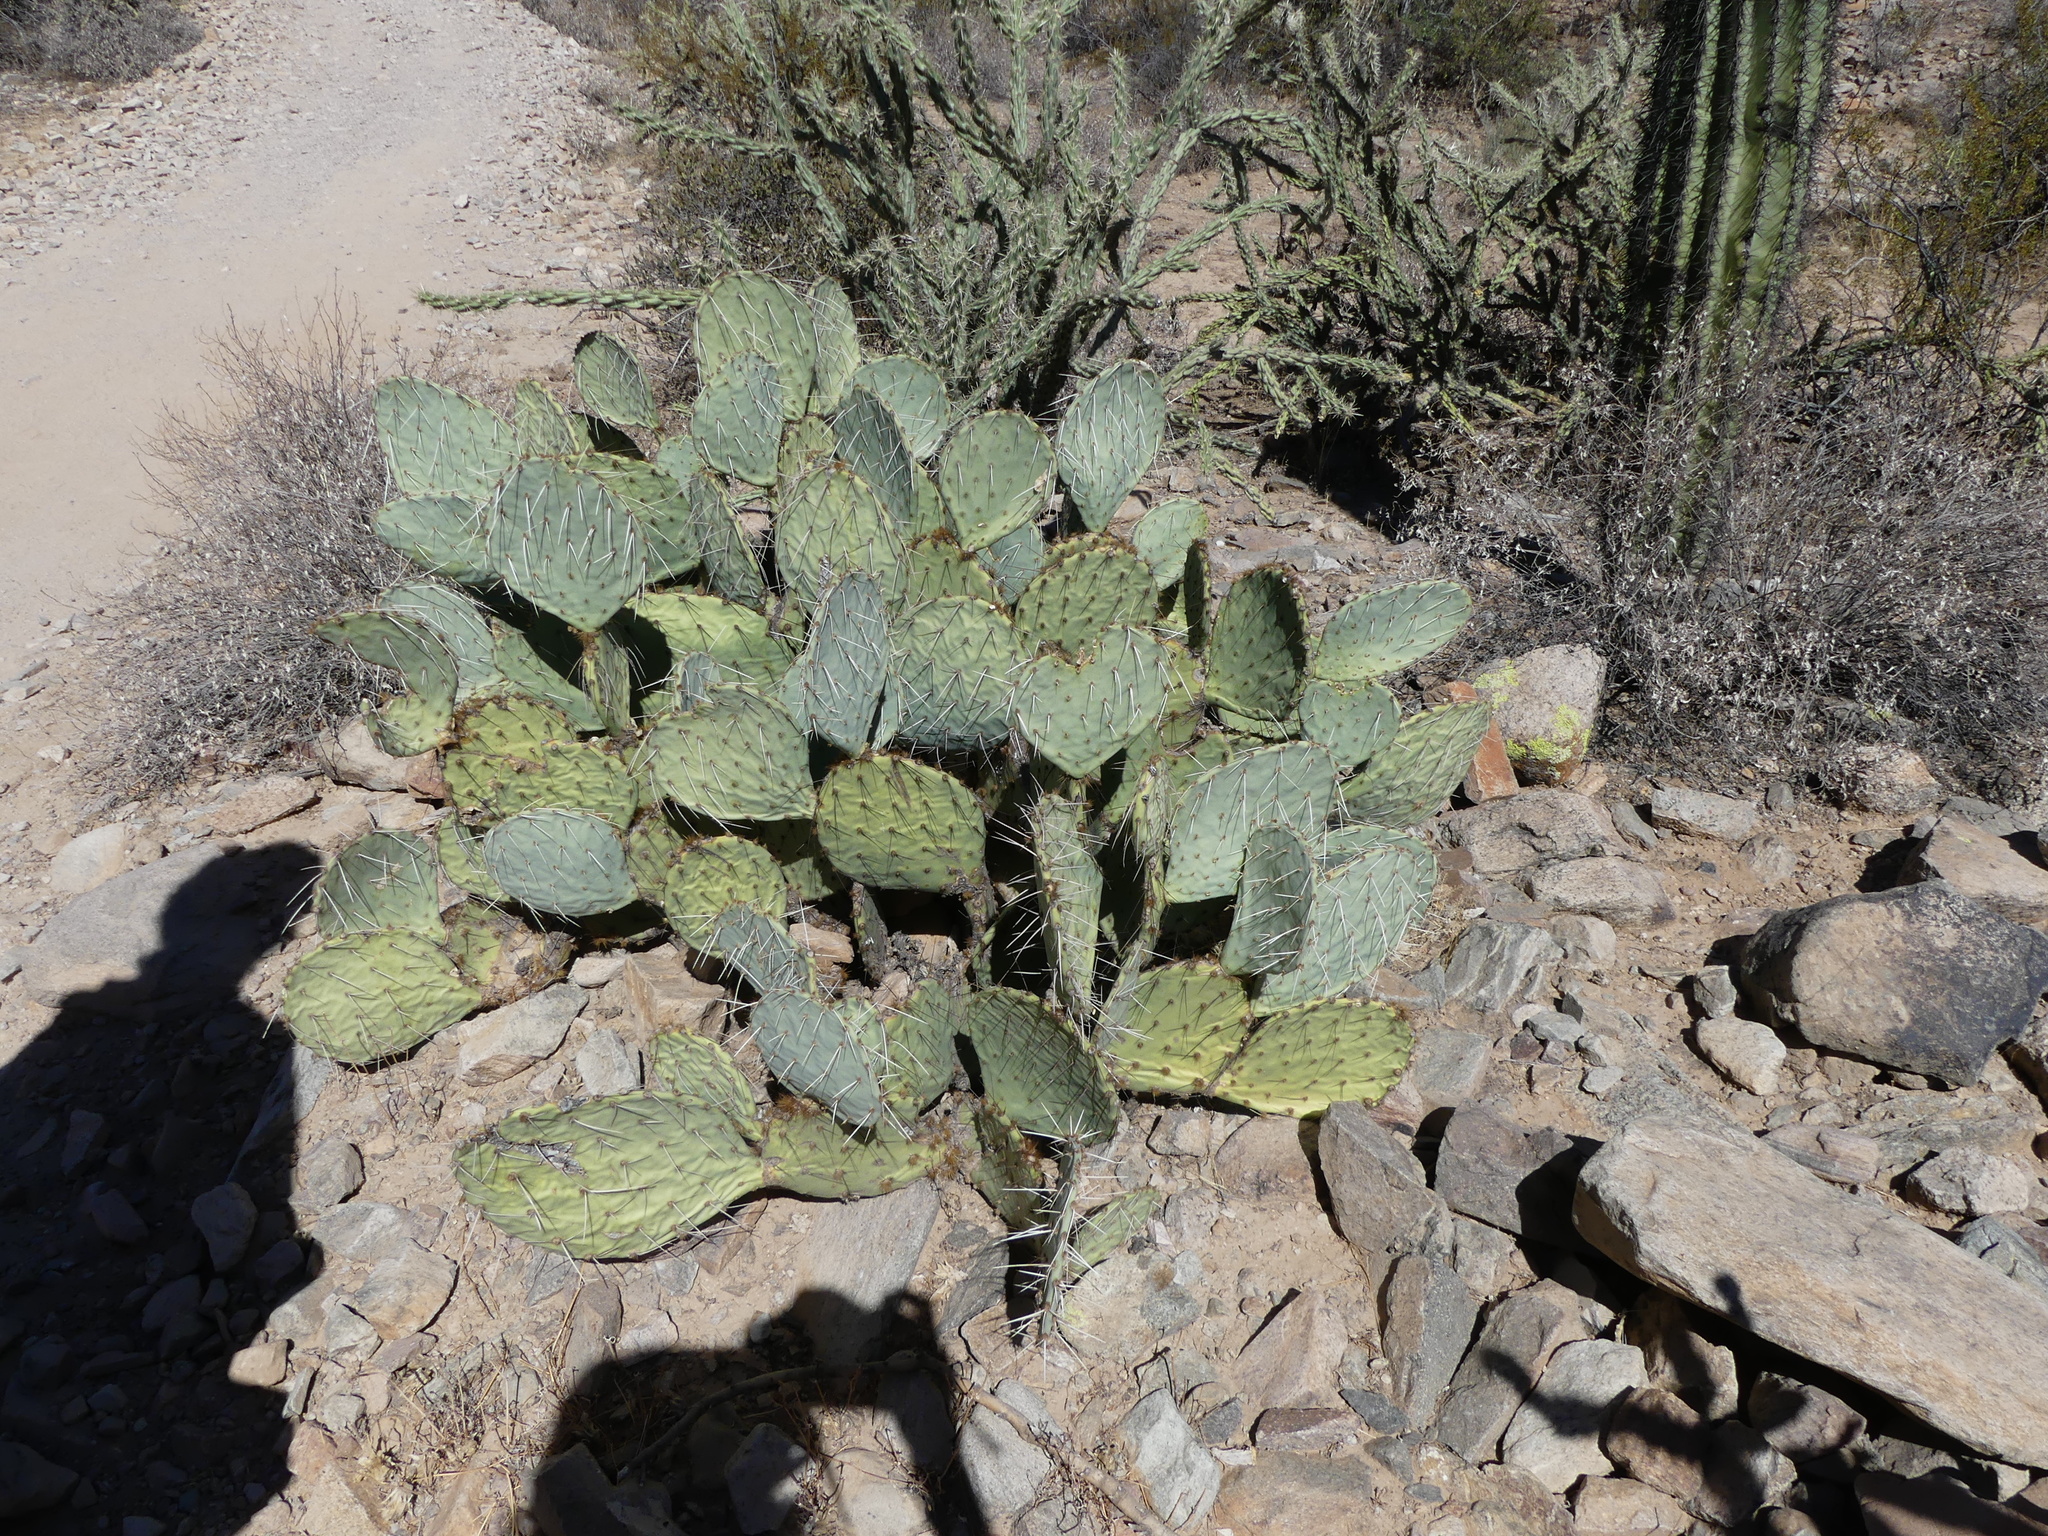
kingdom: Plantae
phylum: Tracheophyta
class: Magnoliopsida
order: Caryophyllales
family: Cactaceae
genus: Opuntia
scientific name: Opuntia engelmannii
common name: Cactus-apple
